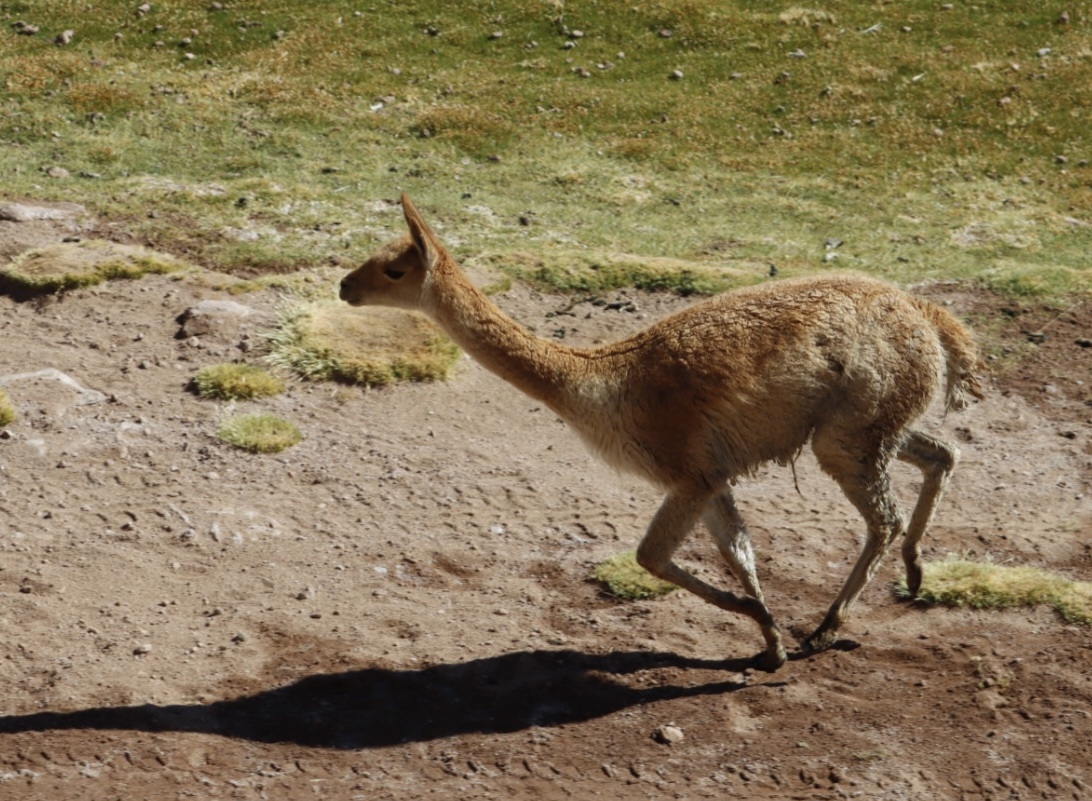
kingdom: Animalia
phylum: Chordata
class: Mammalia
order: Artiodactyla
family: Camelidae
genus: Vicugna
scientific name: Vicugna vicugna
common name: Vicugna
